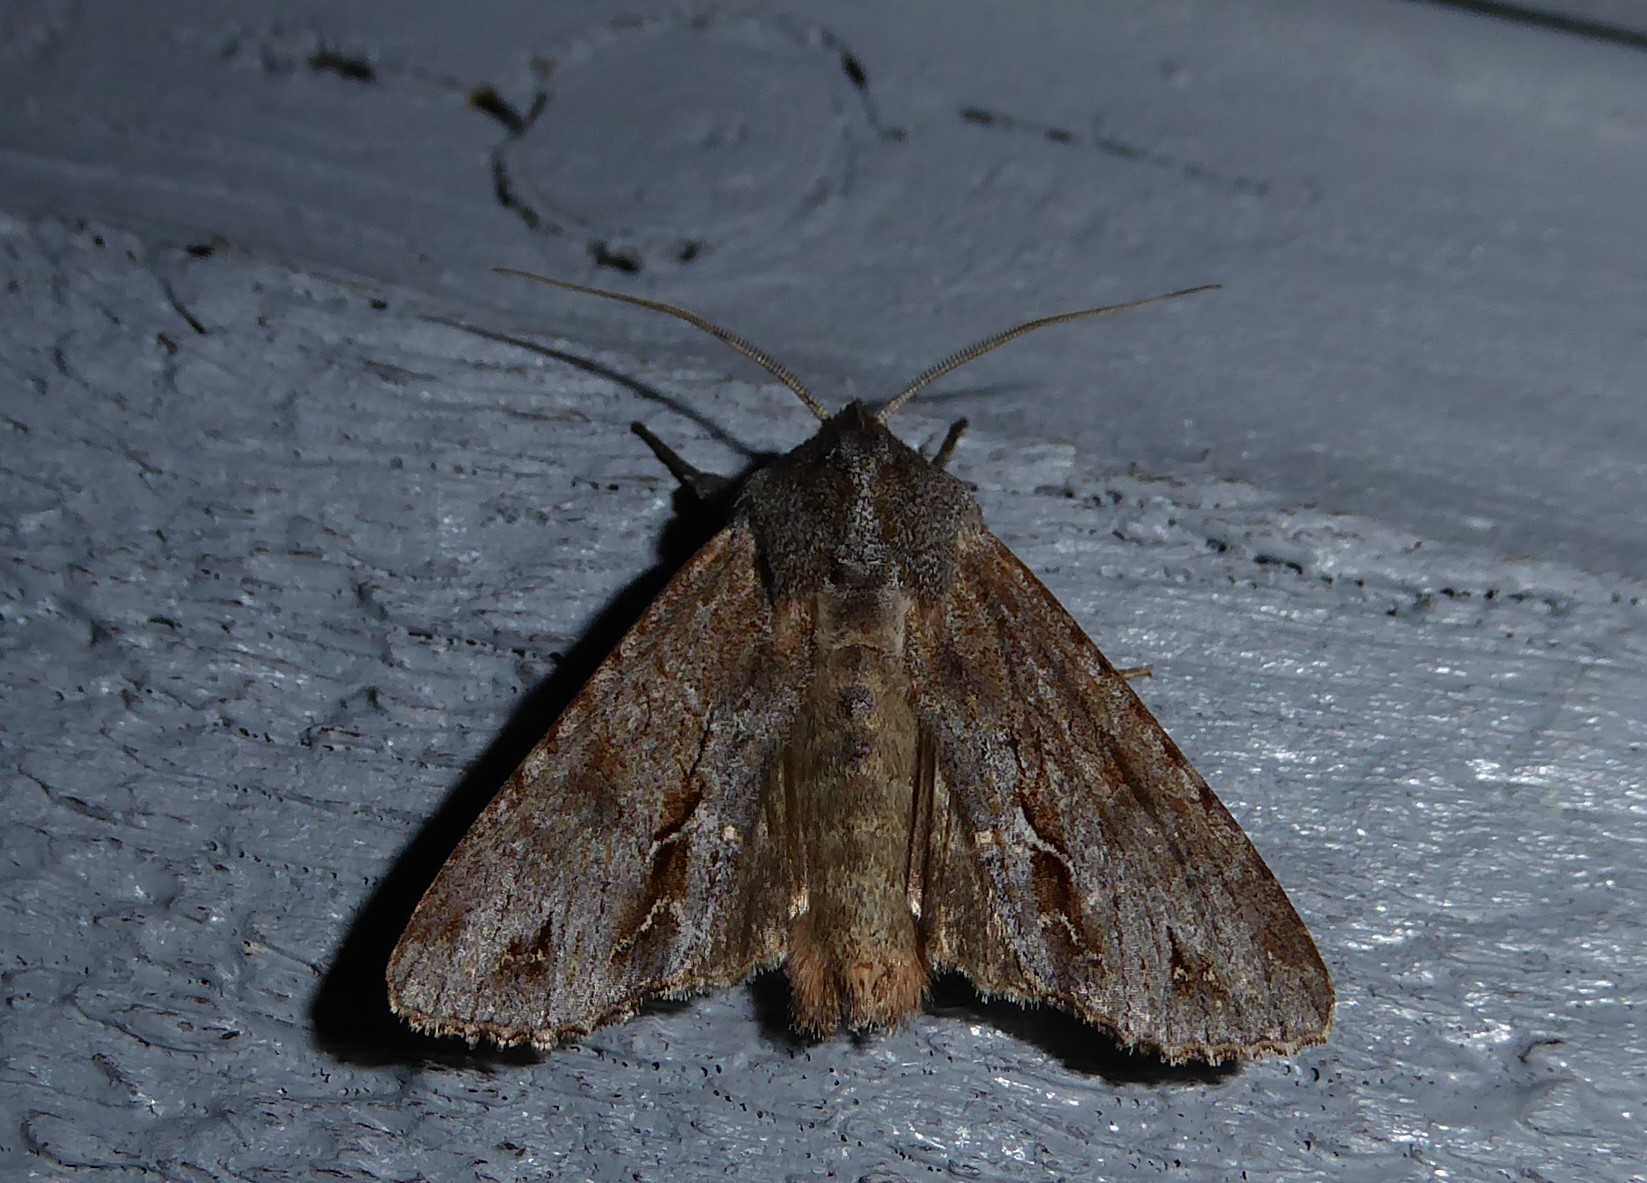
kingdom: Animalia
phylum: Arthropoda
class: Insecta
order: Lepidoptera
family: Noctuidae
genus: Ichneutica
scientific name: Ichneutica
